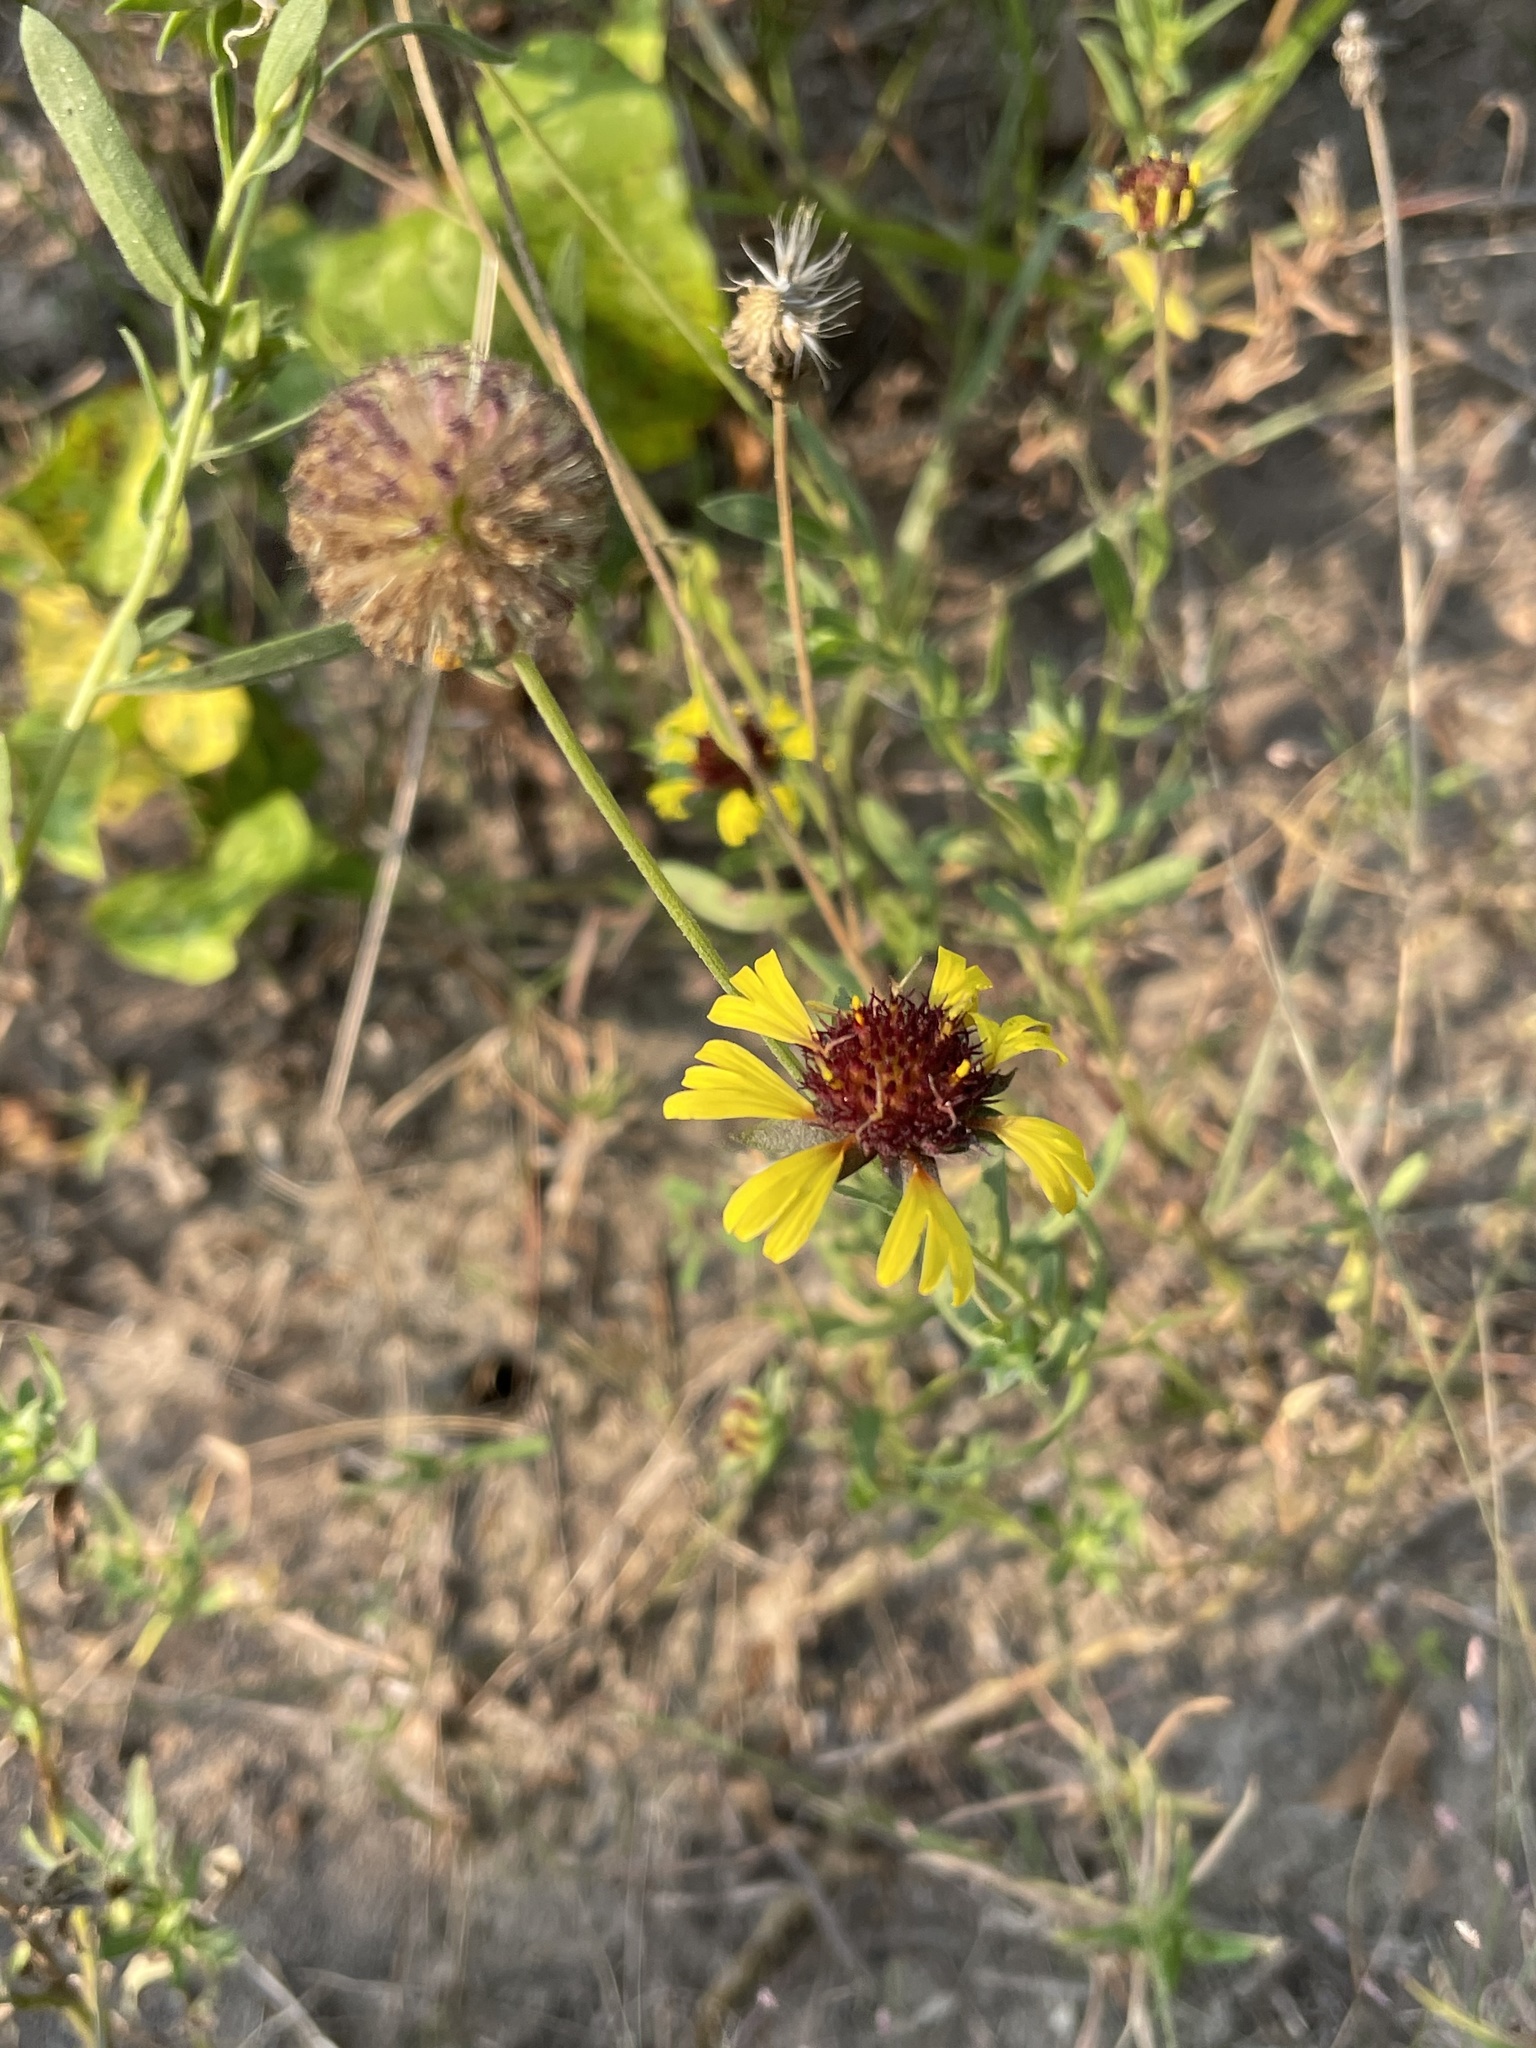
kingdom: Plantae
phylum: Tracheophyta
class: Magnoliopsida
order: Asterales
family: Asteraceae
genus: Gaillardia
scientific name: Gaillardia aestivalis
